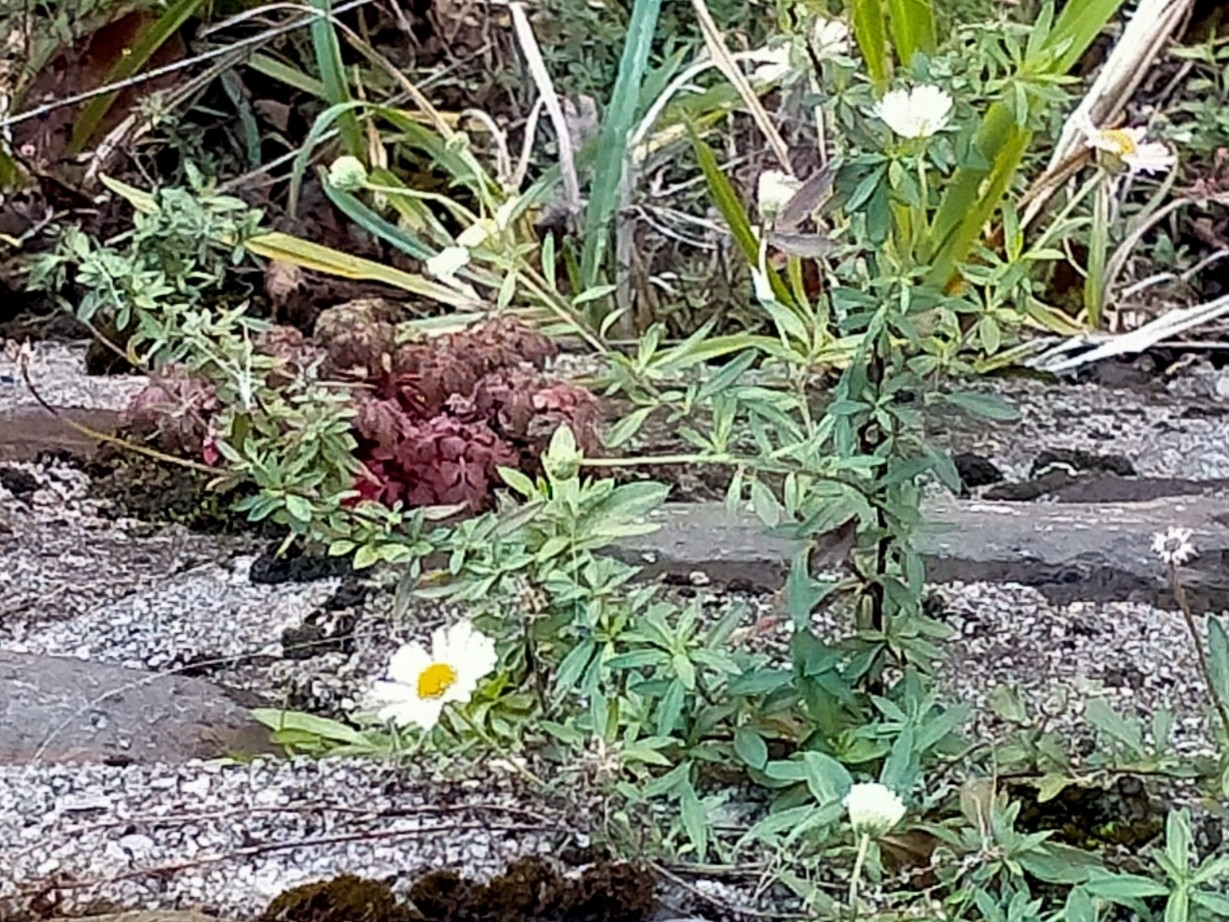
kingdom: Plantae
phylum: Tracheophyta
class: Magnoliopsida
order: Asterales
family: Asteraceae
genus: Erigeron
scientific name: Erigeron karvinskianus
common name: Mexican fleabane
